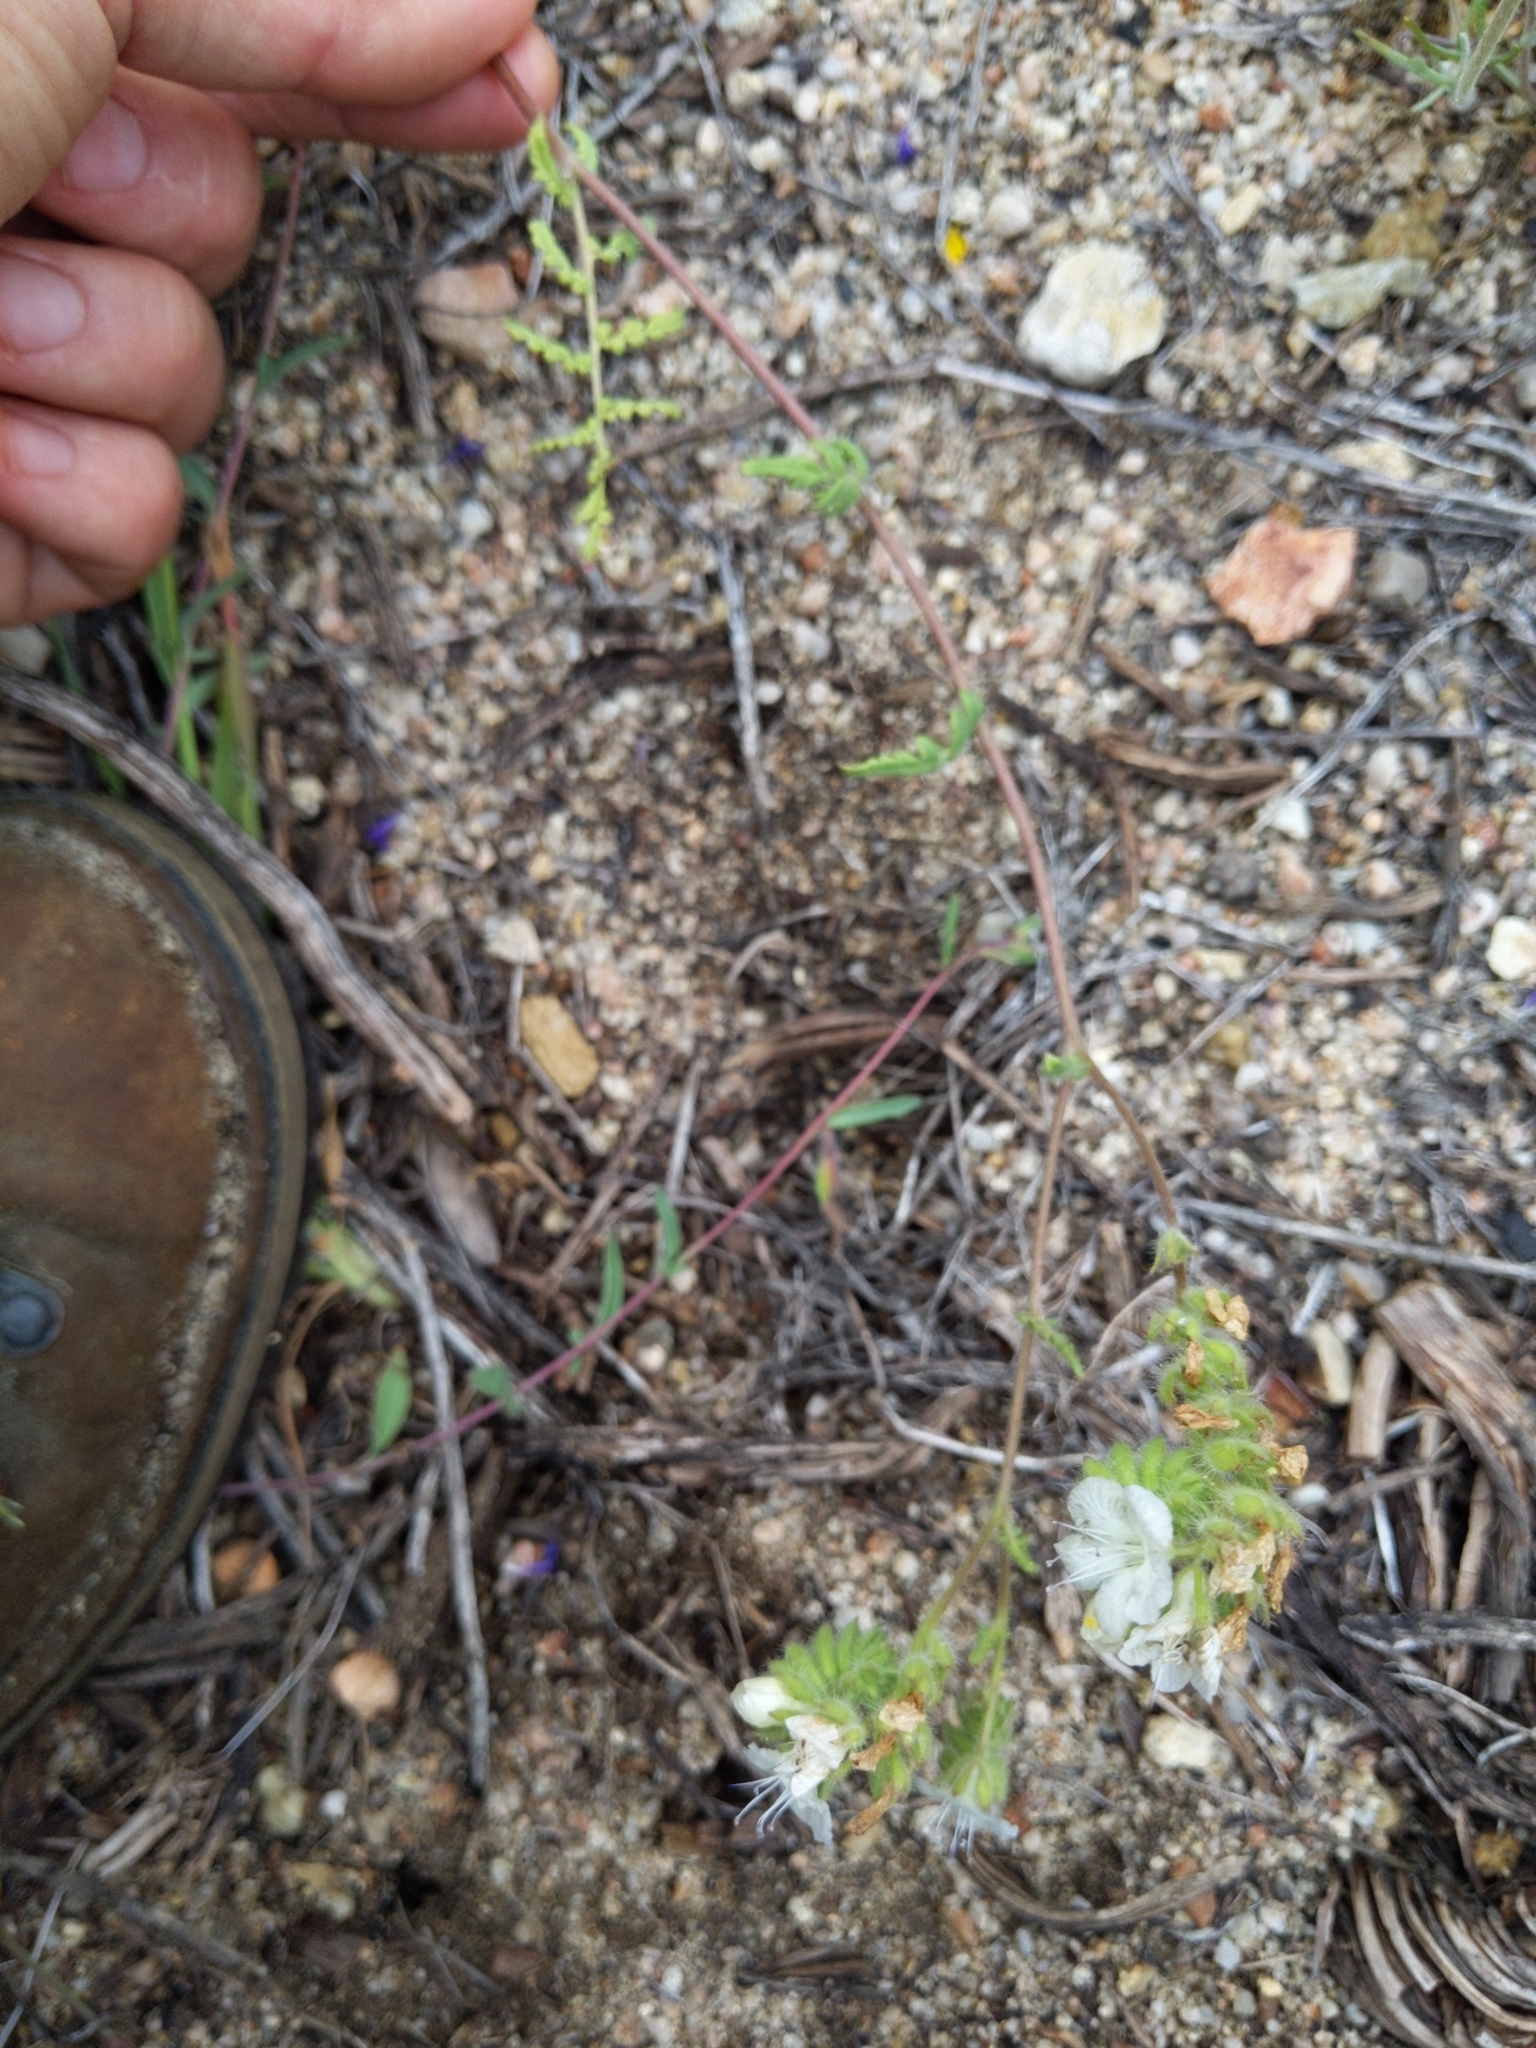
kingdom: Plantae
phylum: Tracheophyta
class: Magnoliopsida
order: Boraginales
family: Hydrophyllaceae
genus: Phacelia
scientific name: Phacelia distans
